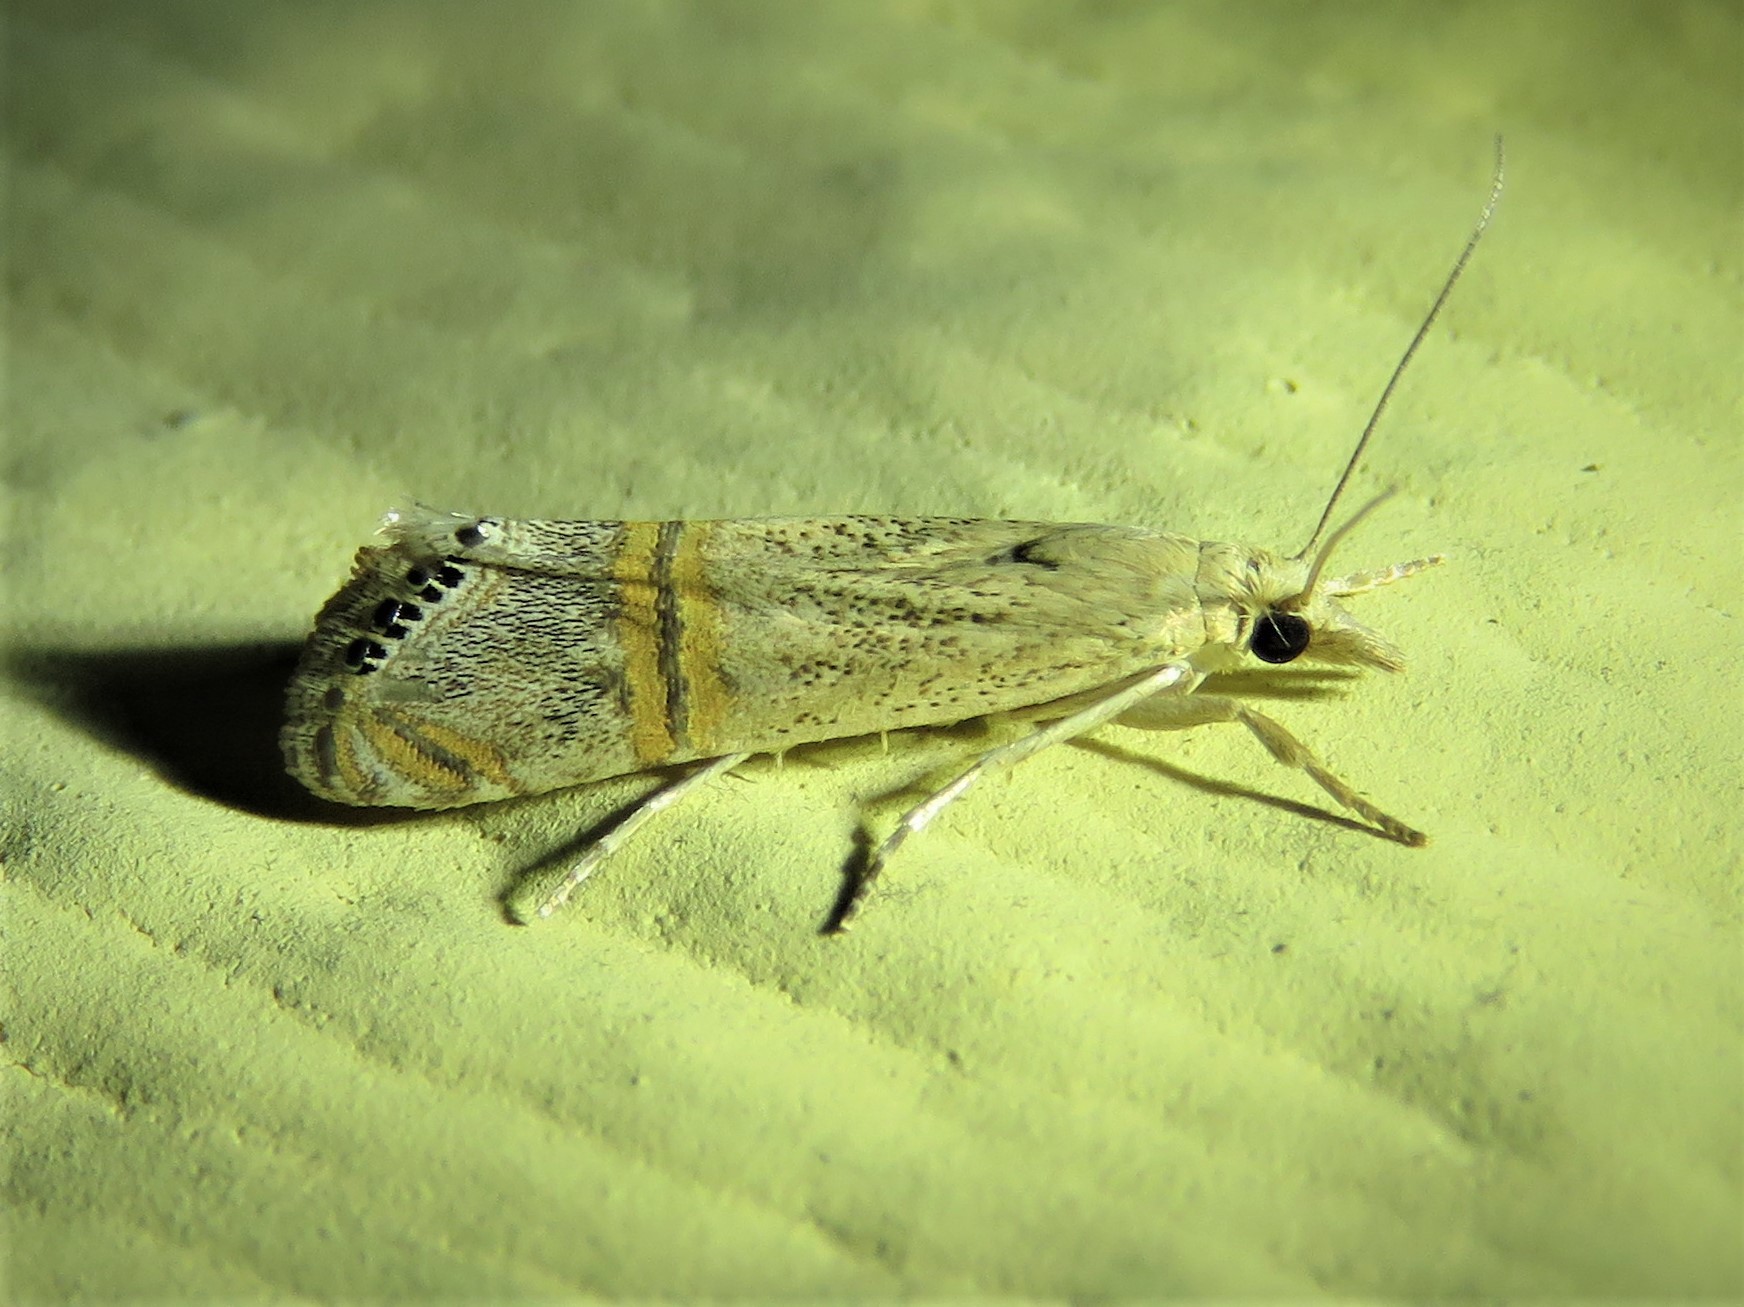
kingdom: Animalia
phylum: Arthropoda
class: Insecta
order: Lepidoptera
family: Crambidae
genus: Euchromius
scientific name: Euchromius ocellea
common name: Necklace veneer moth
